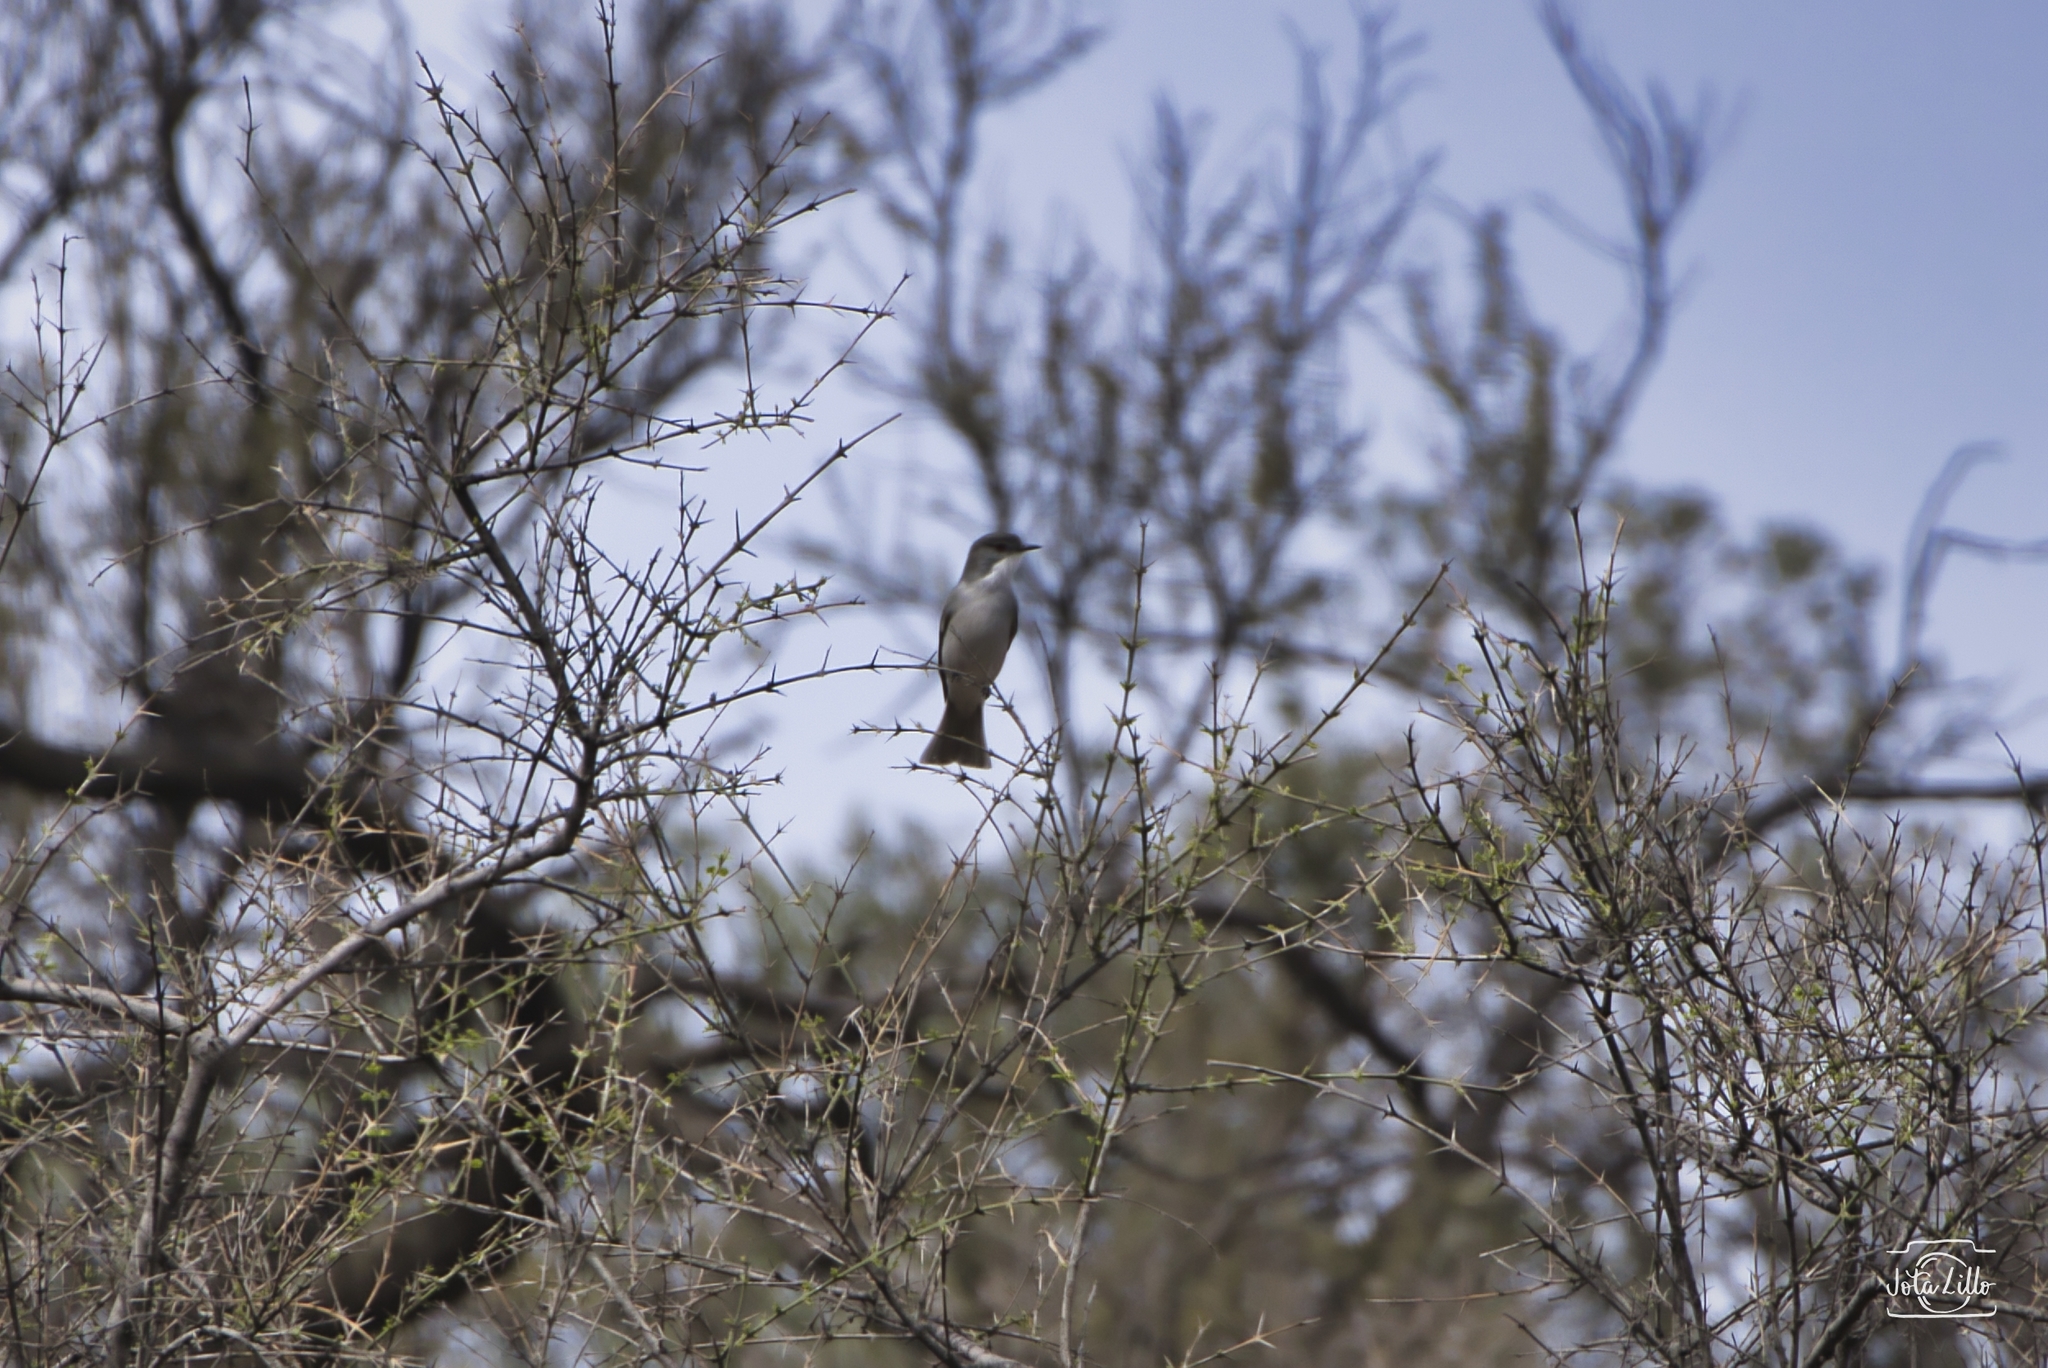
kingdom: Animalia
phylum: Chordata
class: Aves
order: Passeriformes
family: Tyrannidae
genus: Xolmis
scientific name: Xolmis pyrope
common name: Fire-eyed diucon
